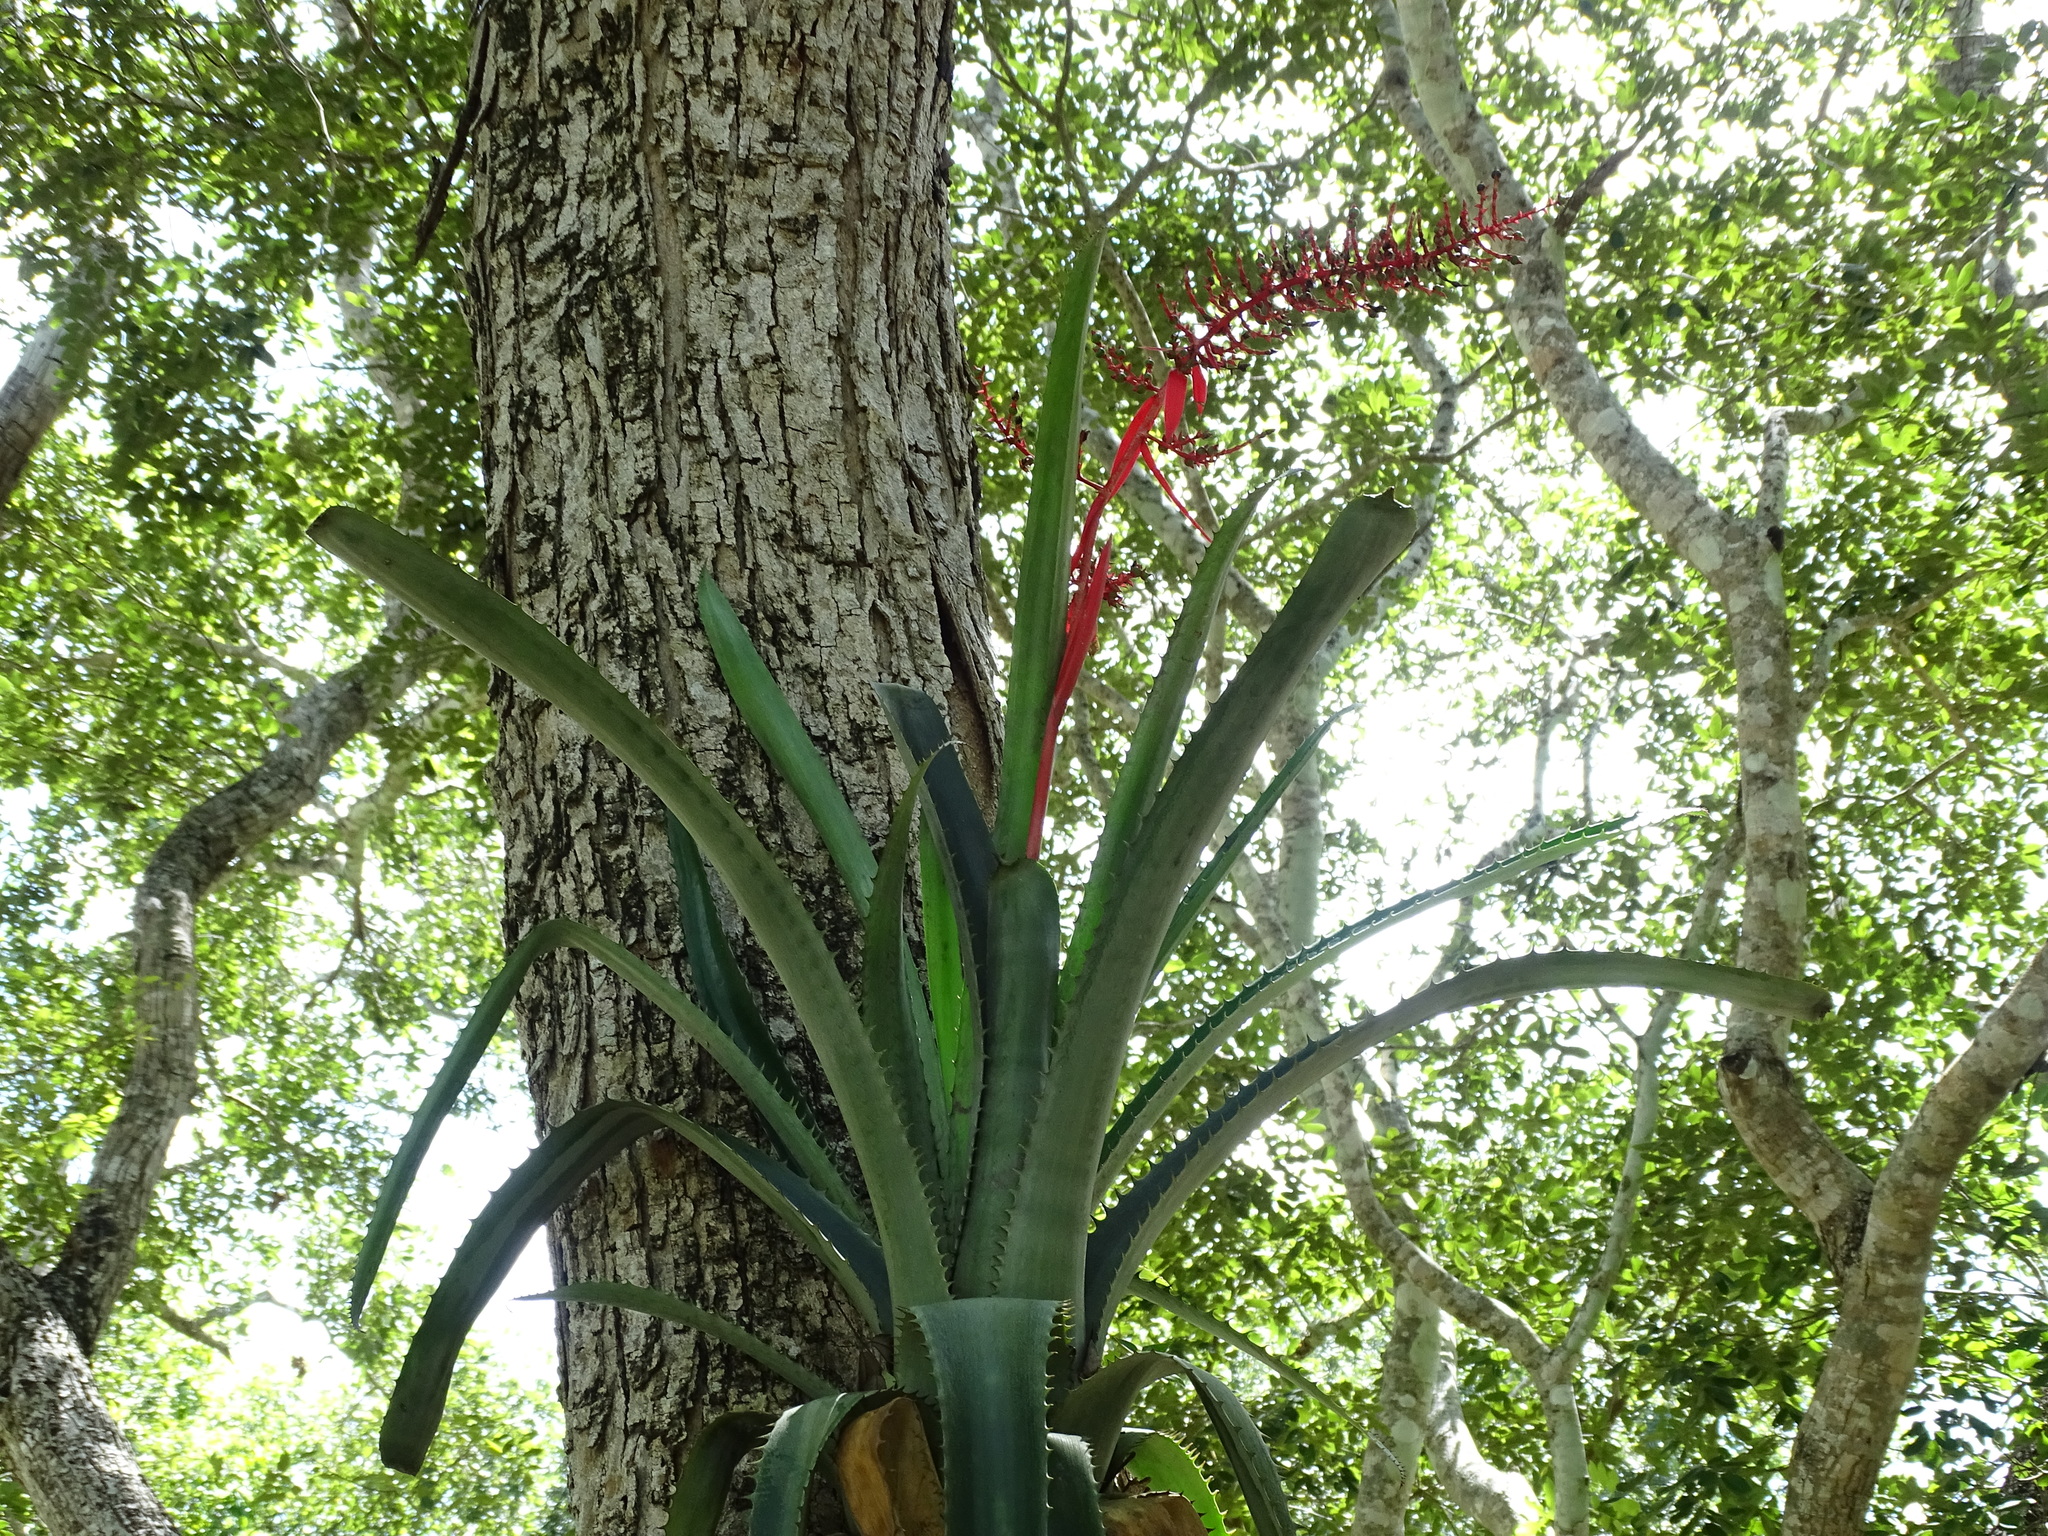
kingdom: Plantae
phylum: Tracheophyta
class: Liliopsida
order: Poales
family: Bromeliaceae
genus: Aechmea
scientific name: Aechmea bracteata
